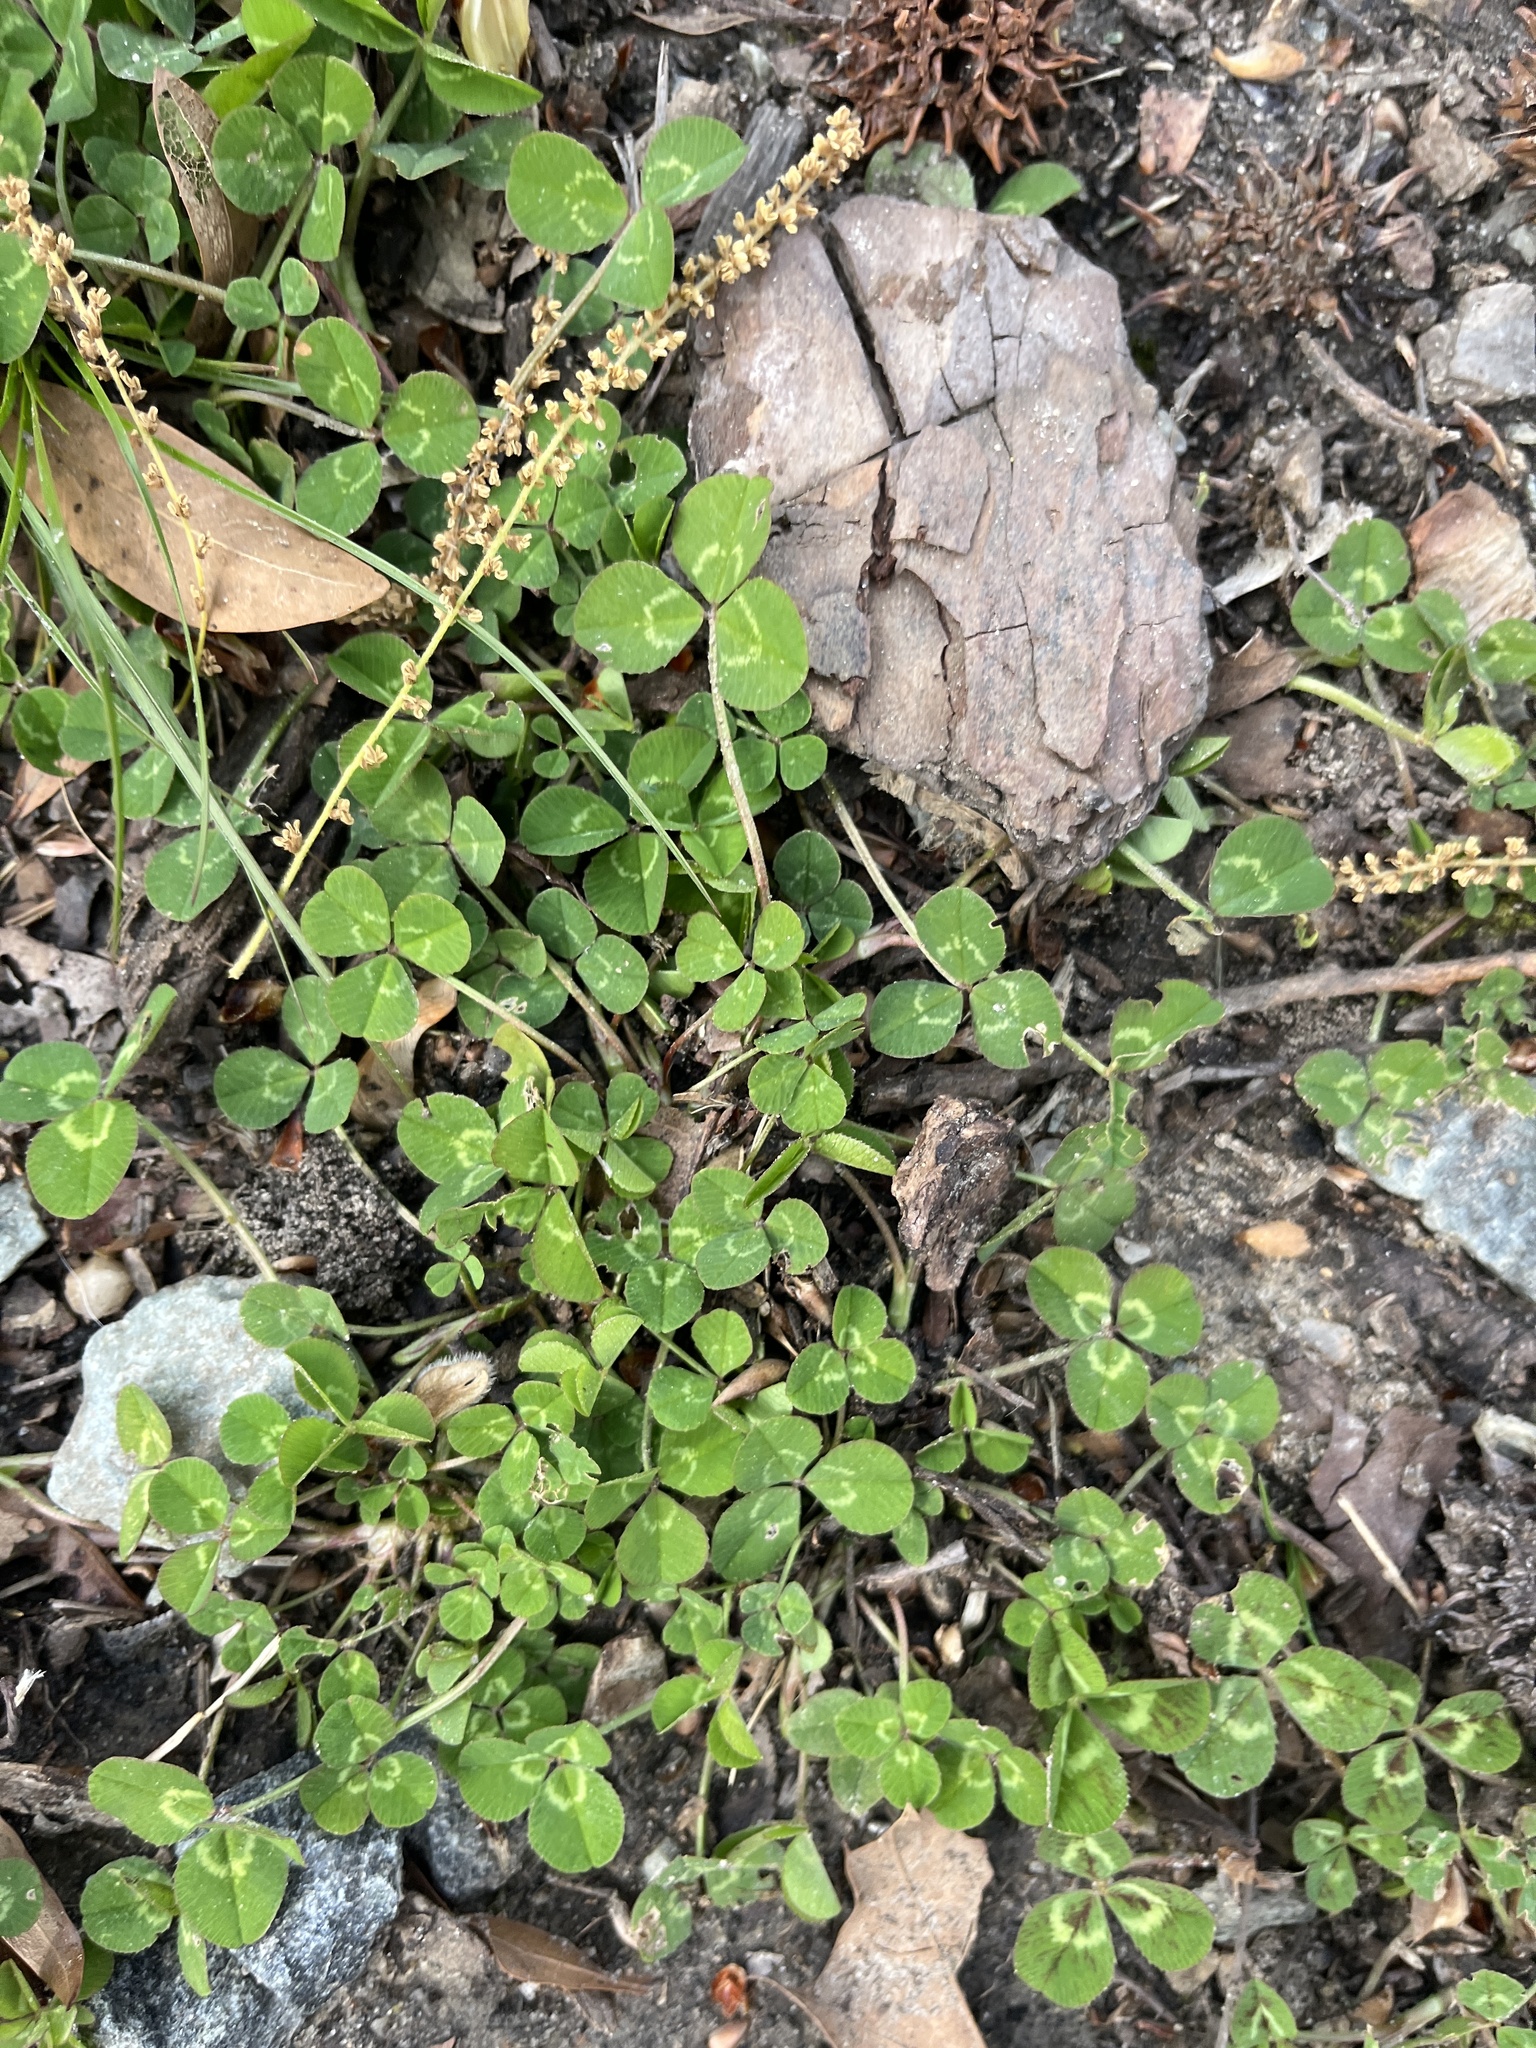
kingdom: Plantae
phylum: Tracheophyta
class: Magnoliopsida
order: Fabales
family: Fabaceae
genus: Trifolium
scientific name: Trifolium repens
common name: White clover
